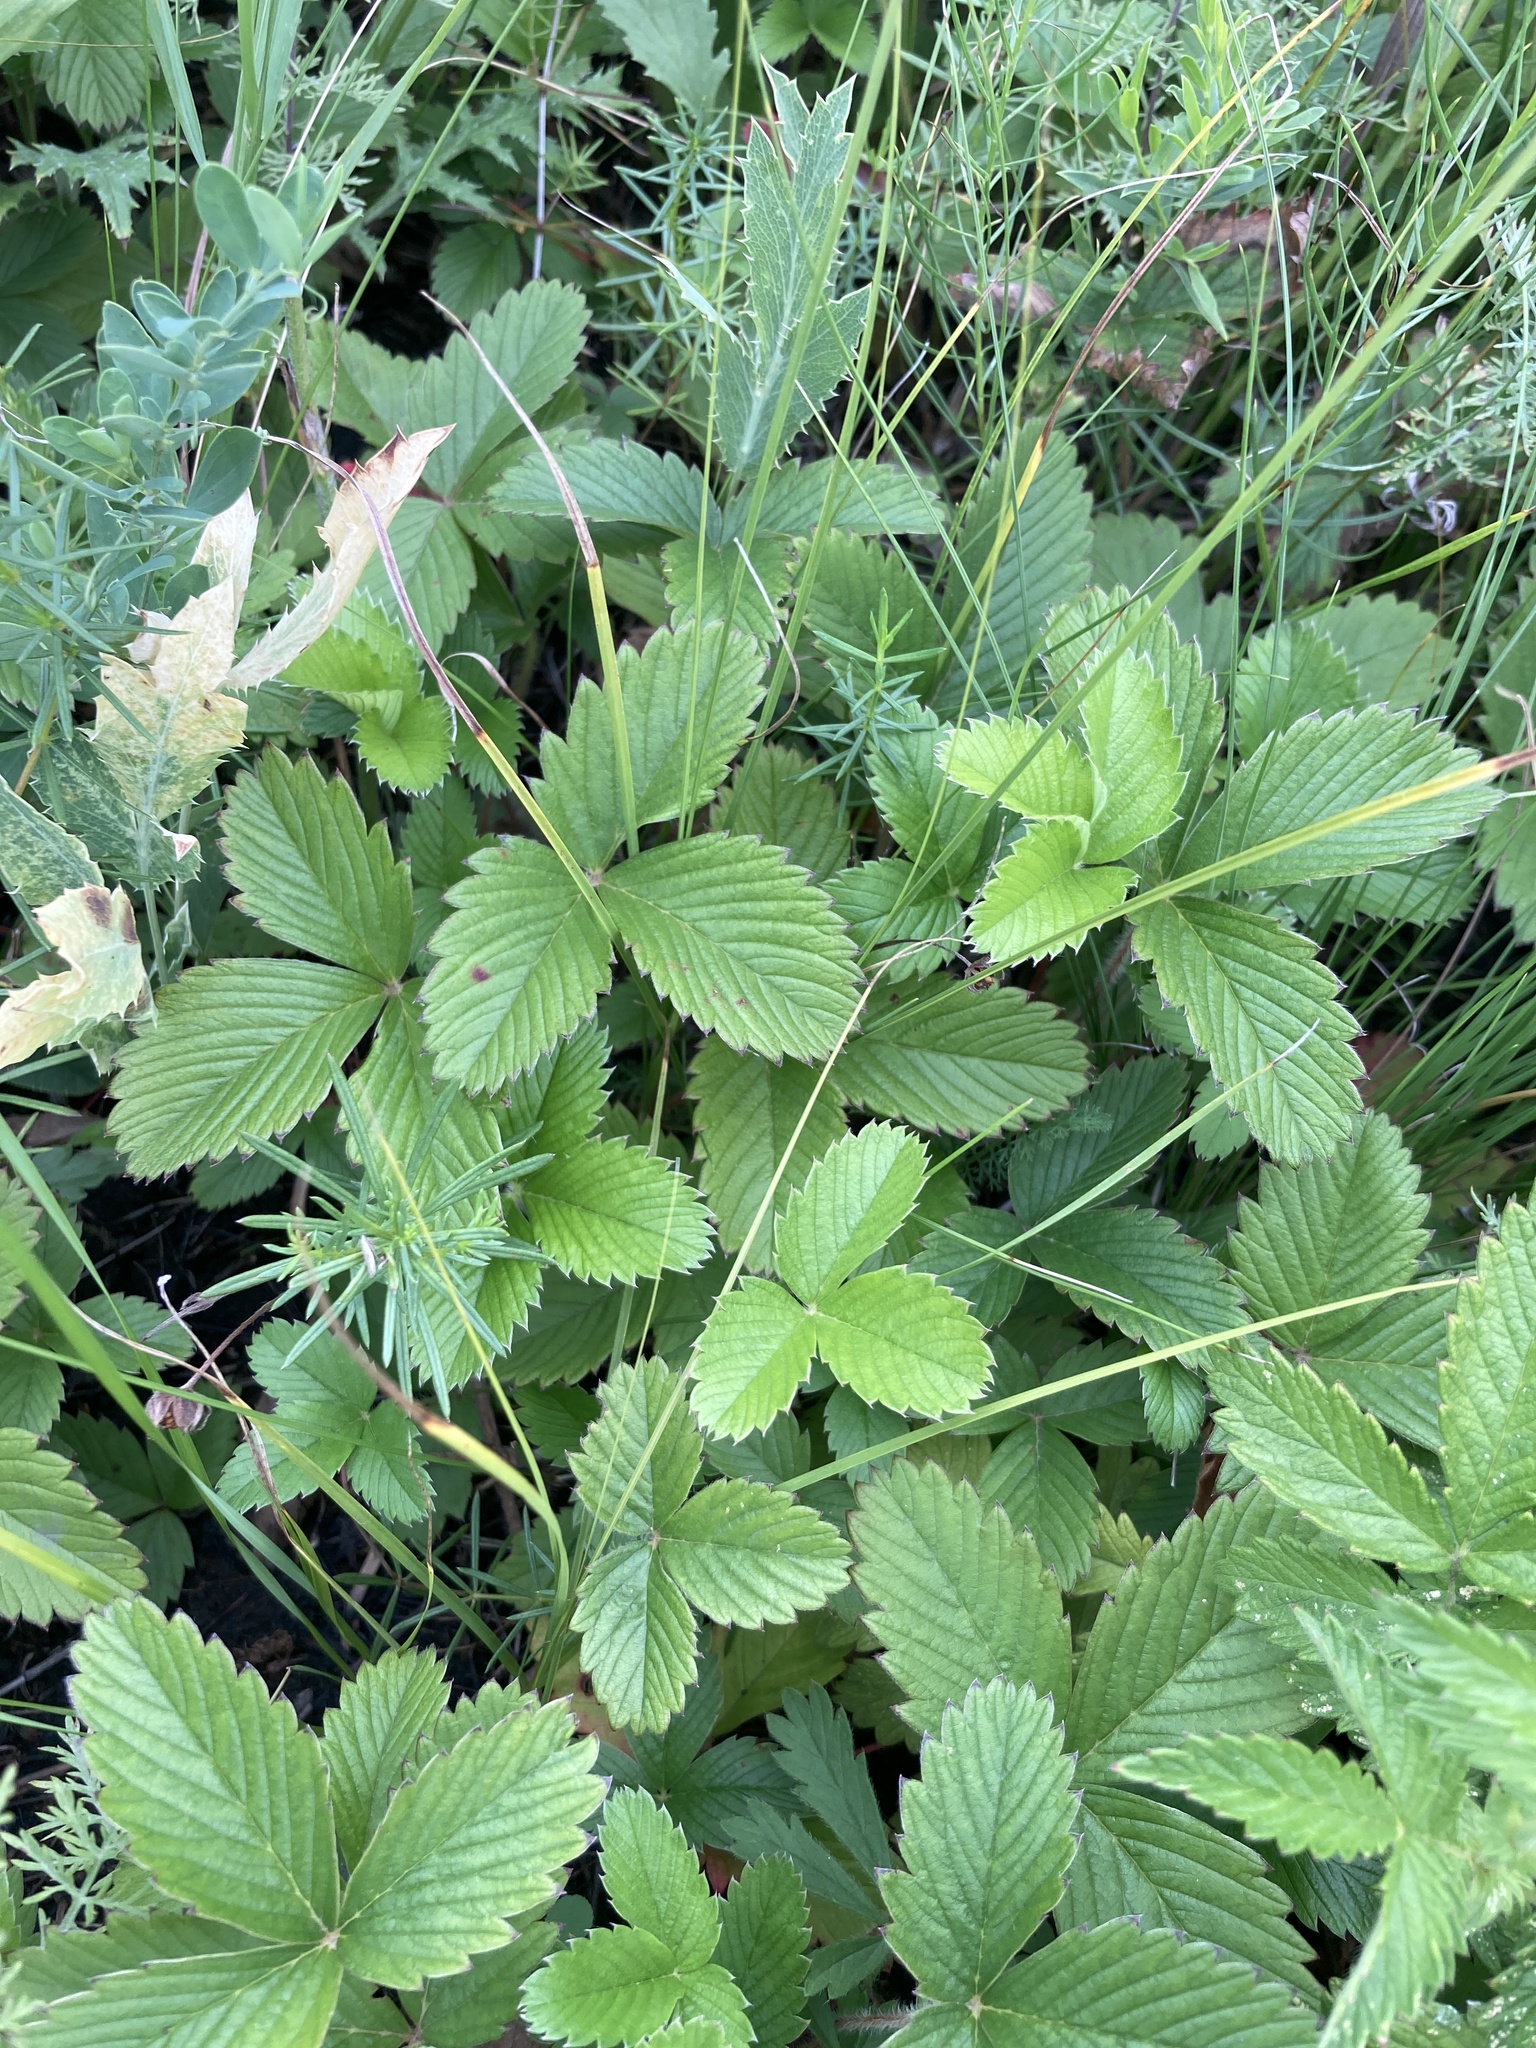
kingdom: Plantae
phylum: Tracheophyta
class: Magnoliopsida
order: Rosales
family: Rosaceae
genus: Fragaria
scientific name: Fragaria viridis
